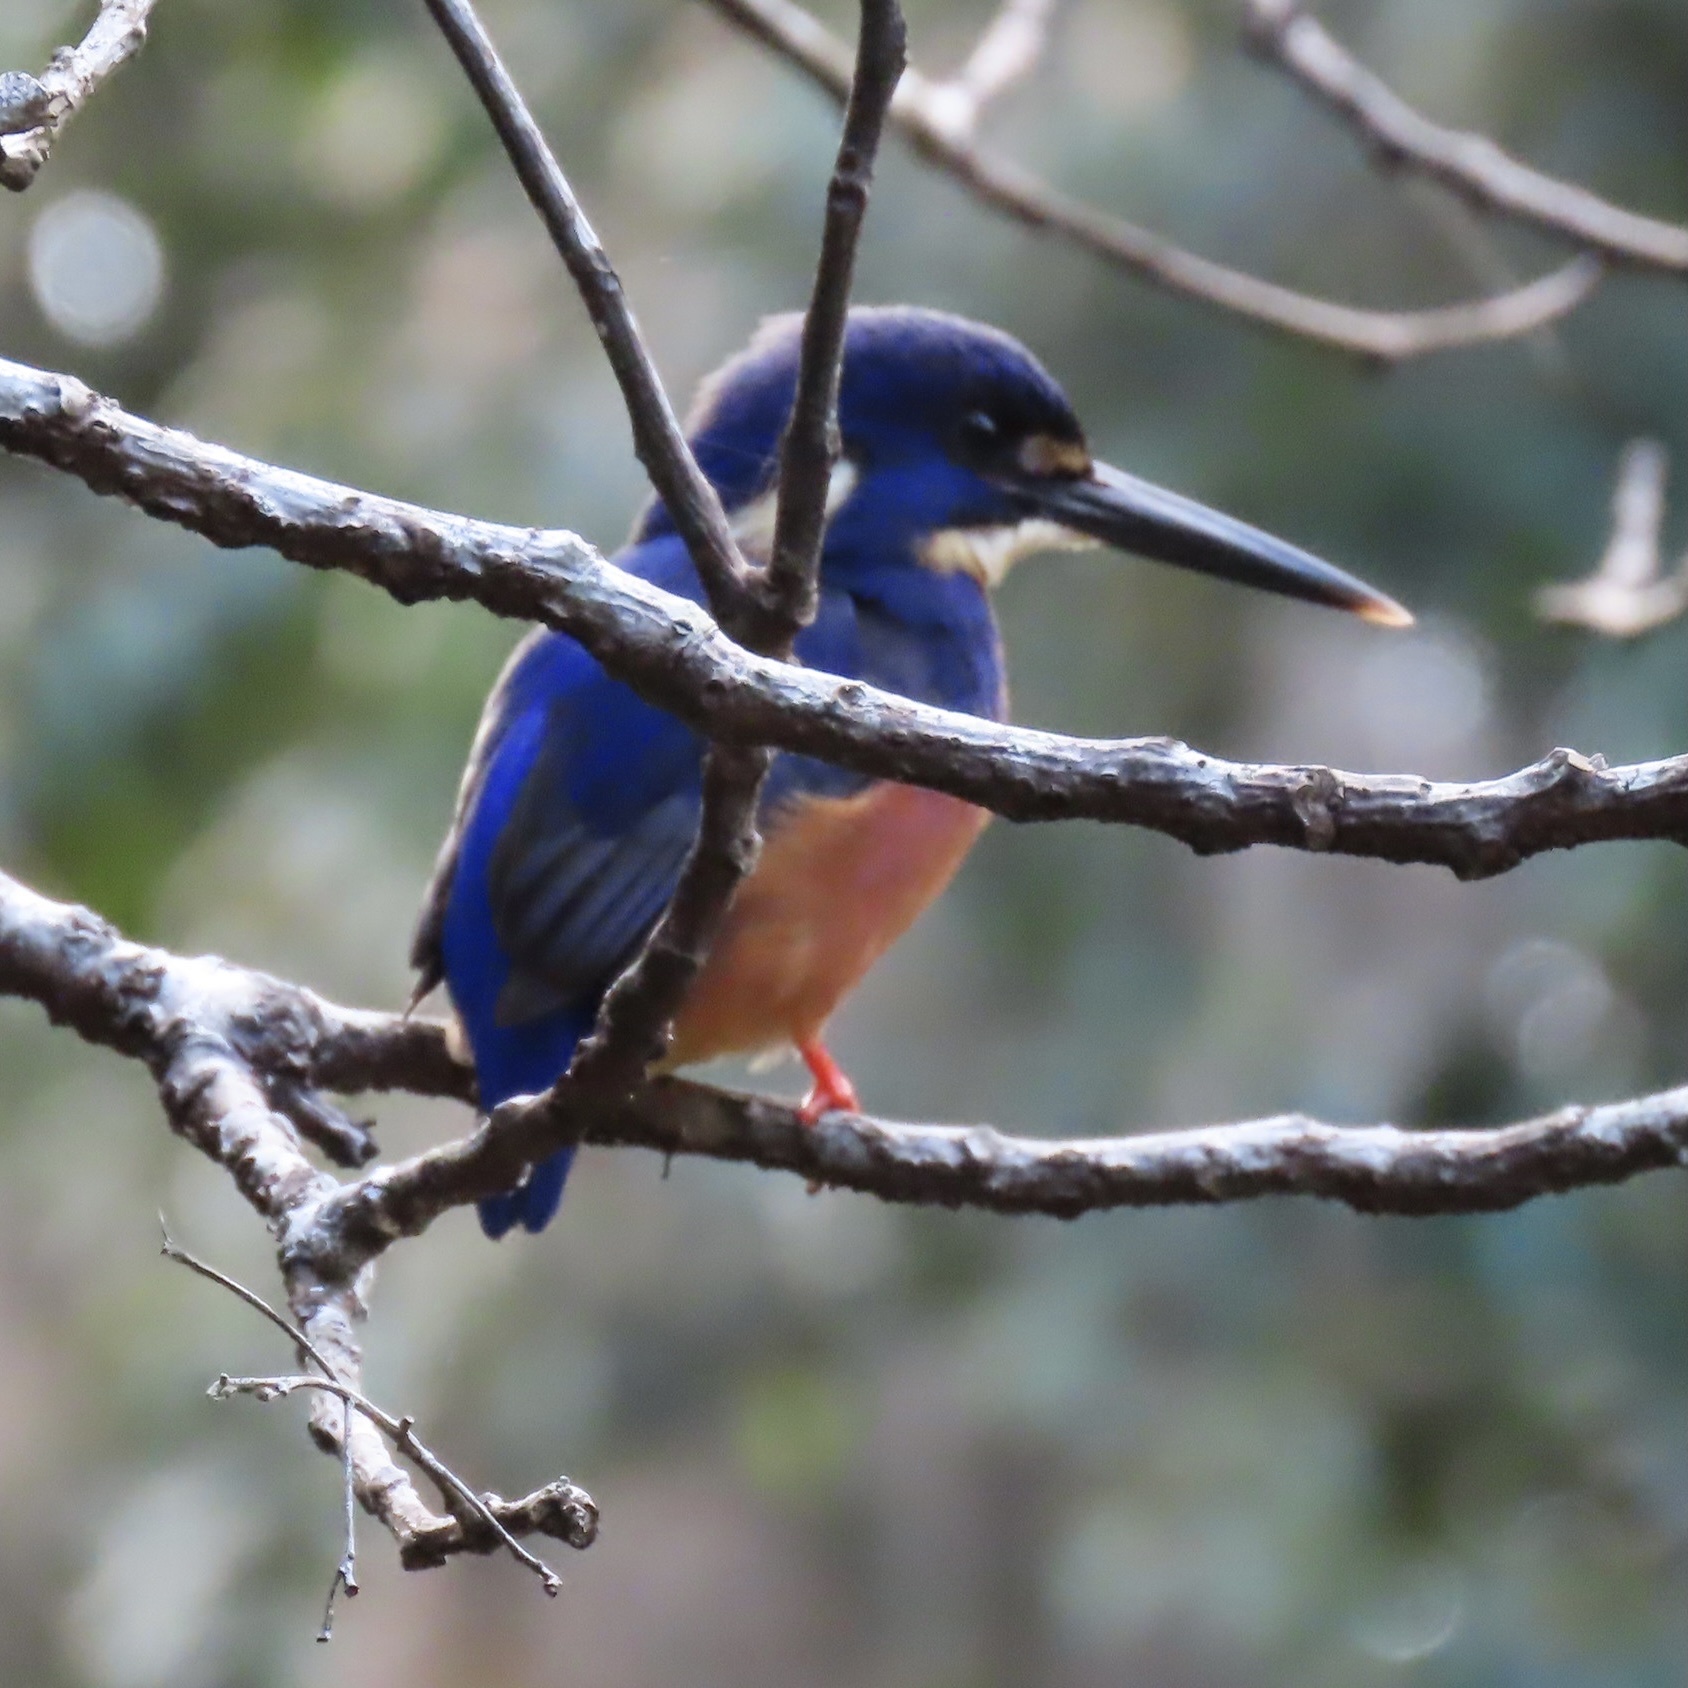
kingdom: Animalia
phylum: Chordata
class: Aves
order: Coraciiformes
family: Alcedinidae
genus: Ceyx
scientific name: Ceyx azureus
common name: Azure kingfisher
